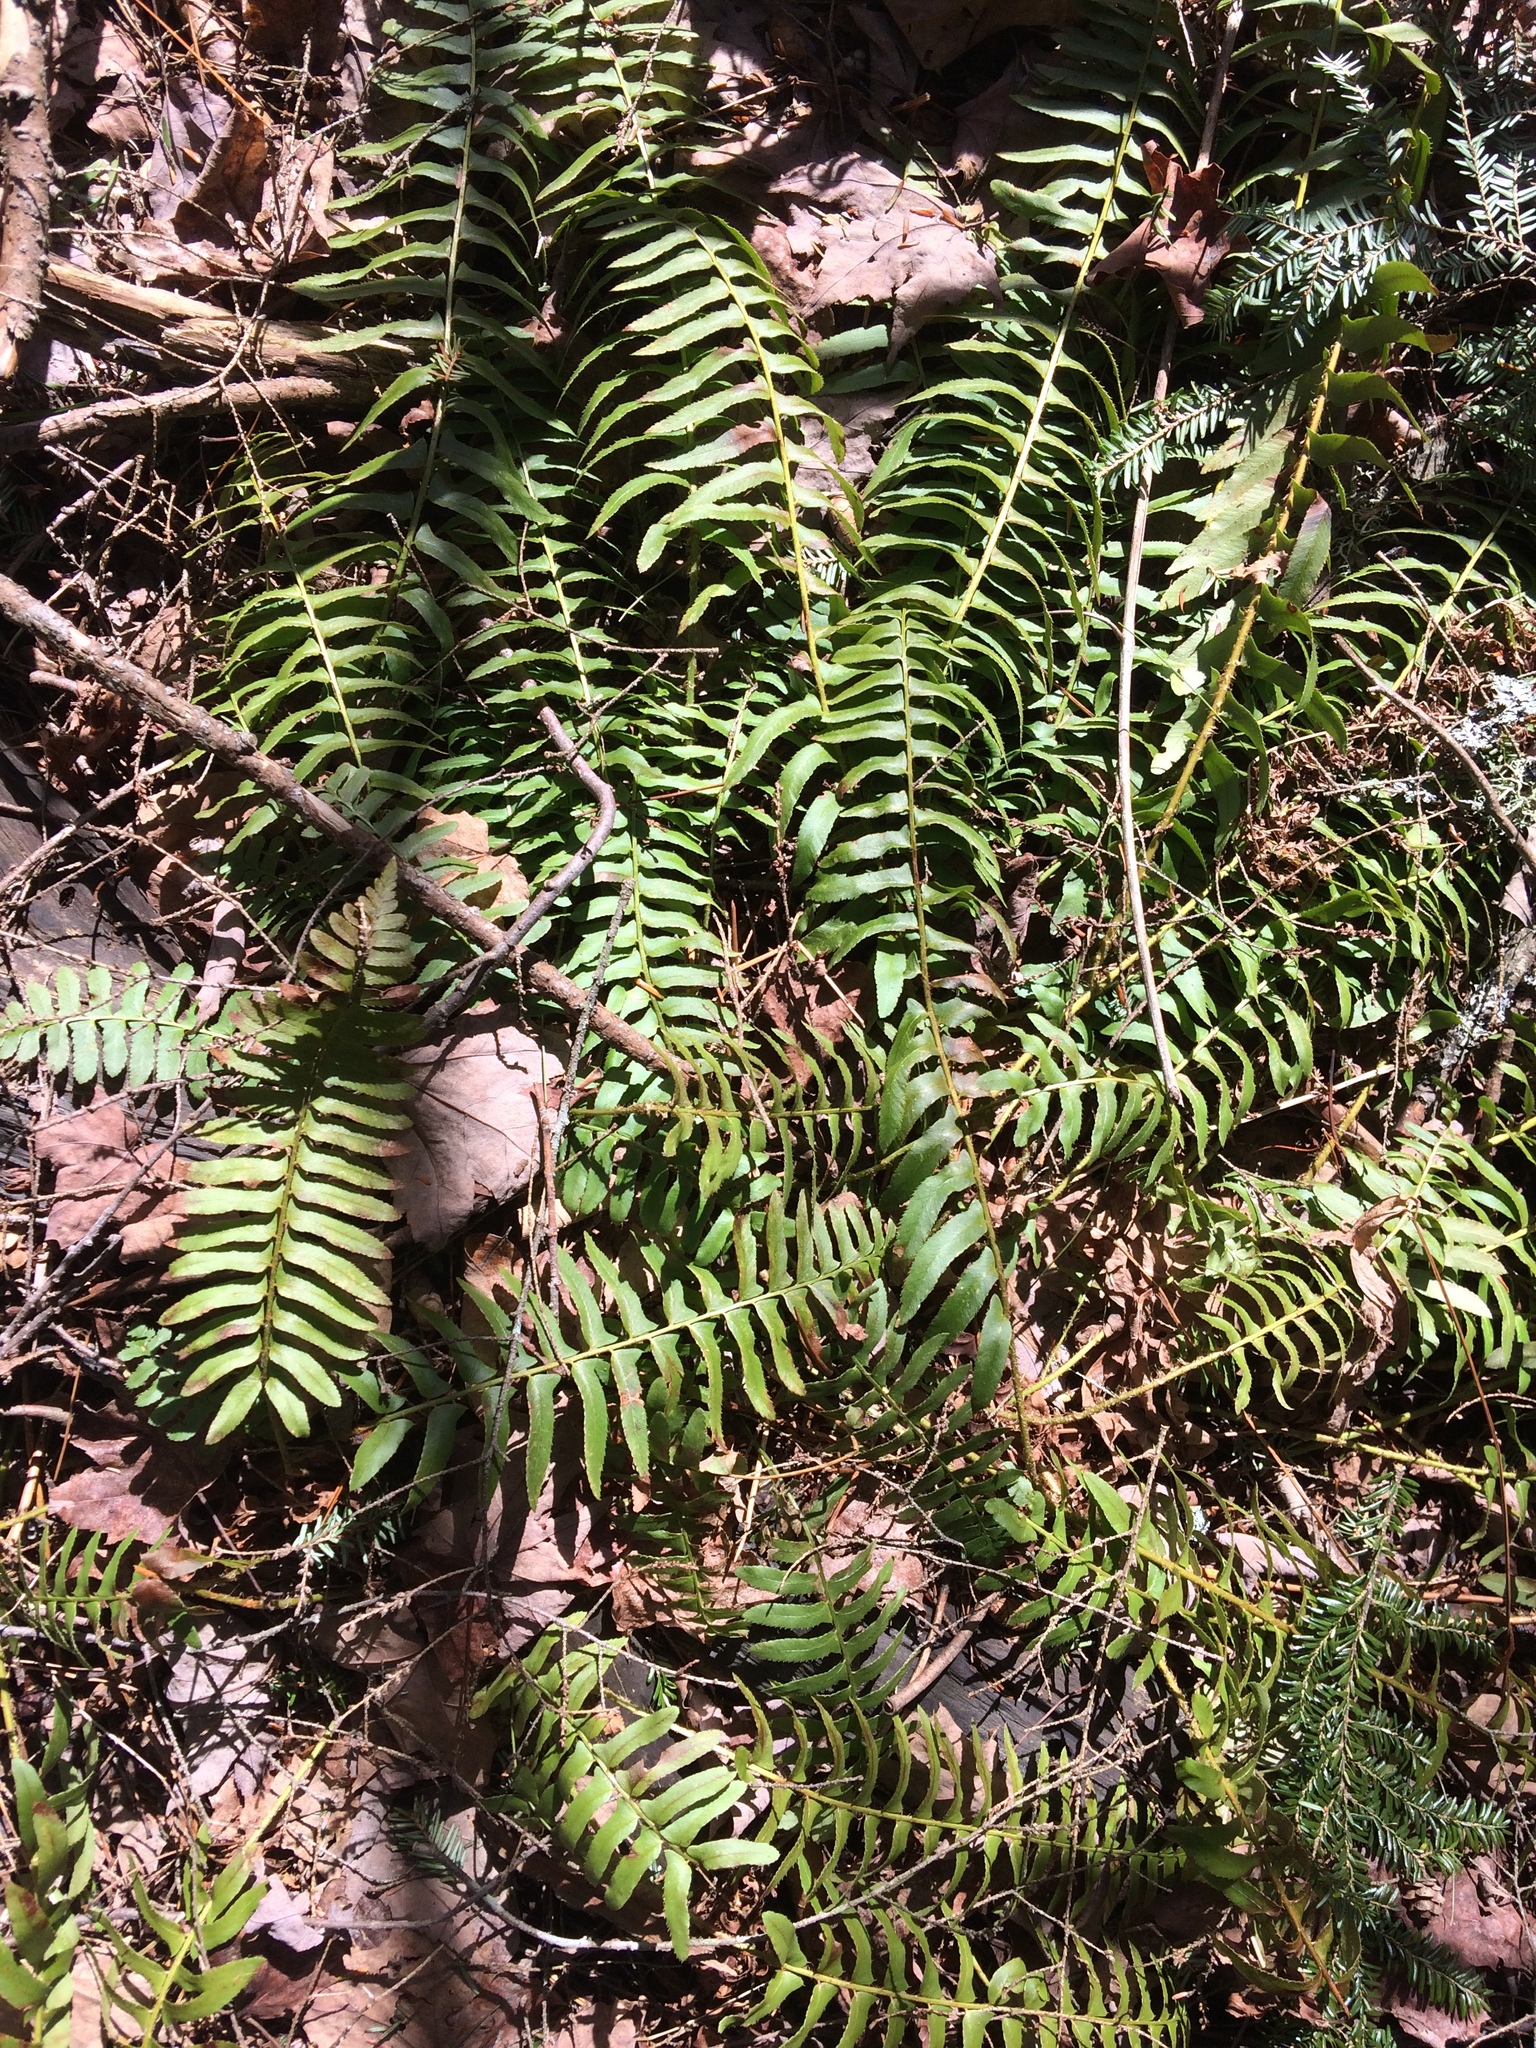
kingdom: Plantae
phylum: Tracheophyta
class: Polypodiopsida
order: Polypodiales
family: Dryopteridaceae
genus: Polystichum
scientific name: Polystichum acrostichoides
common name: Christmas fern
